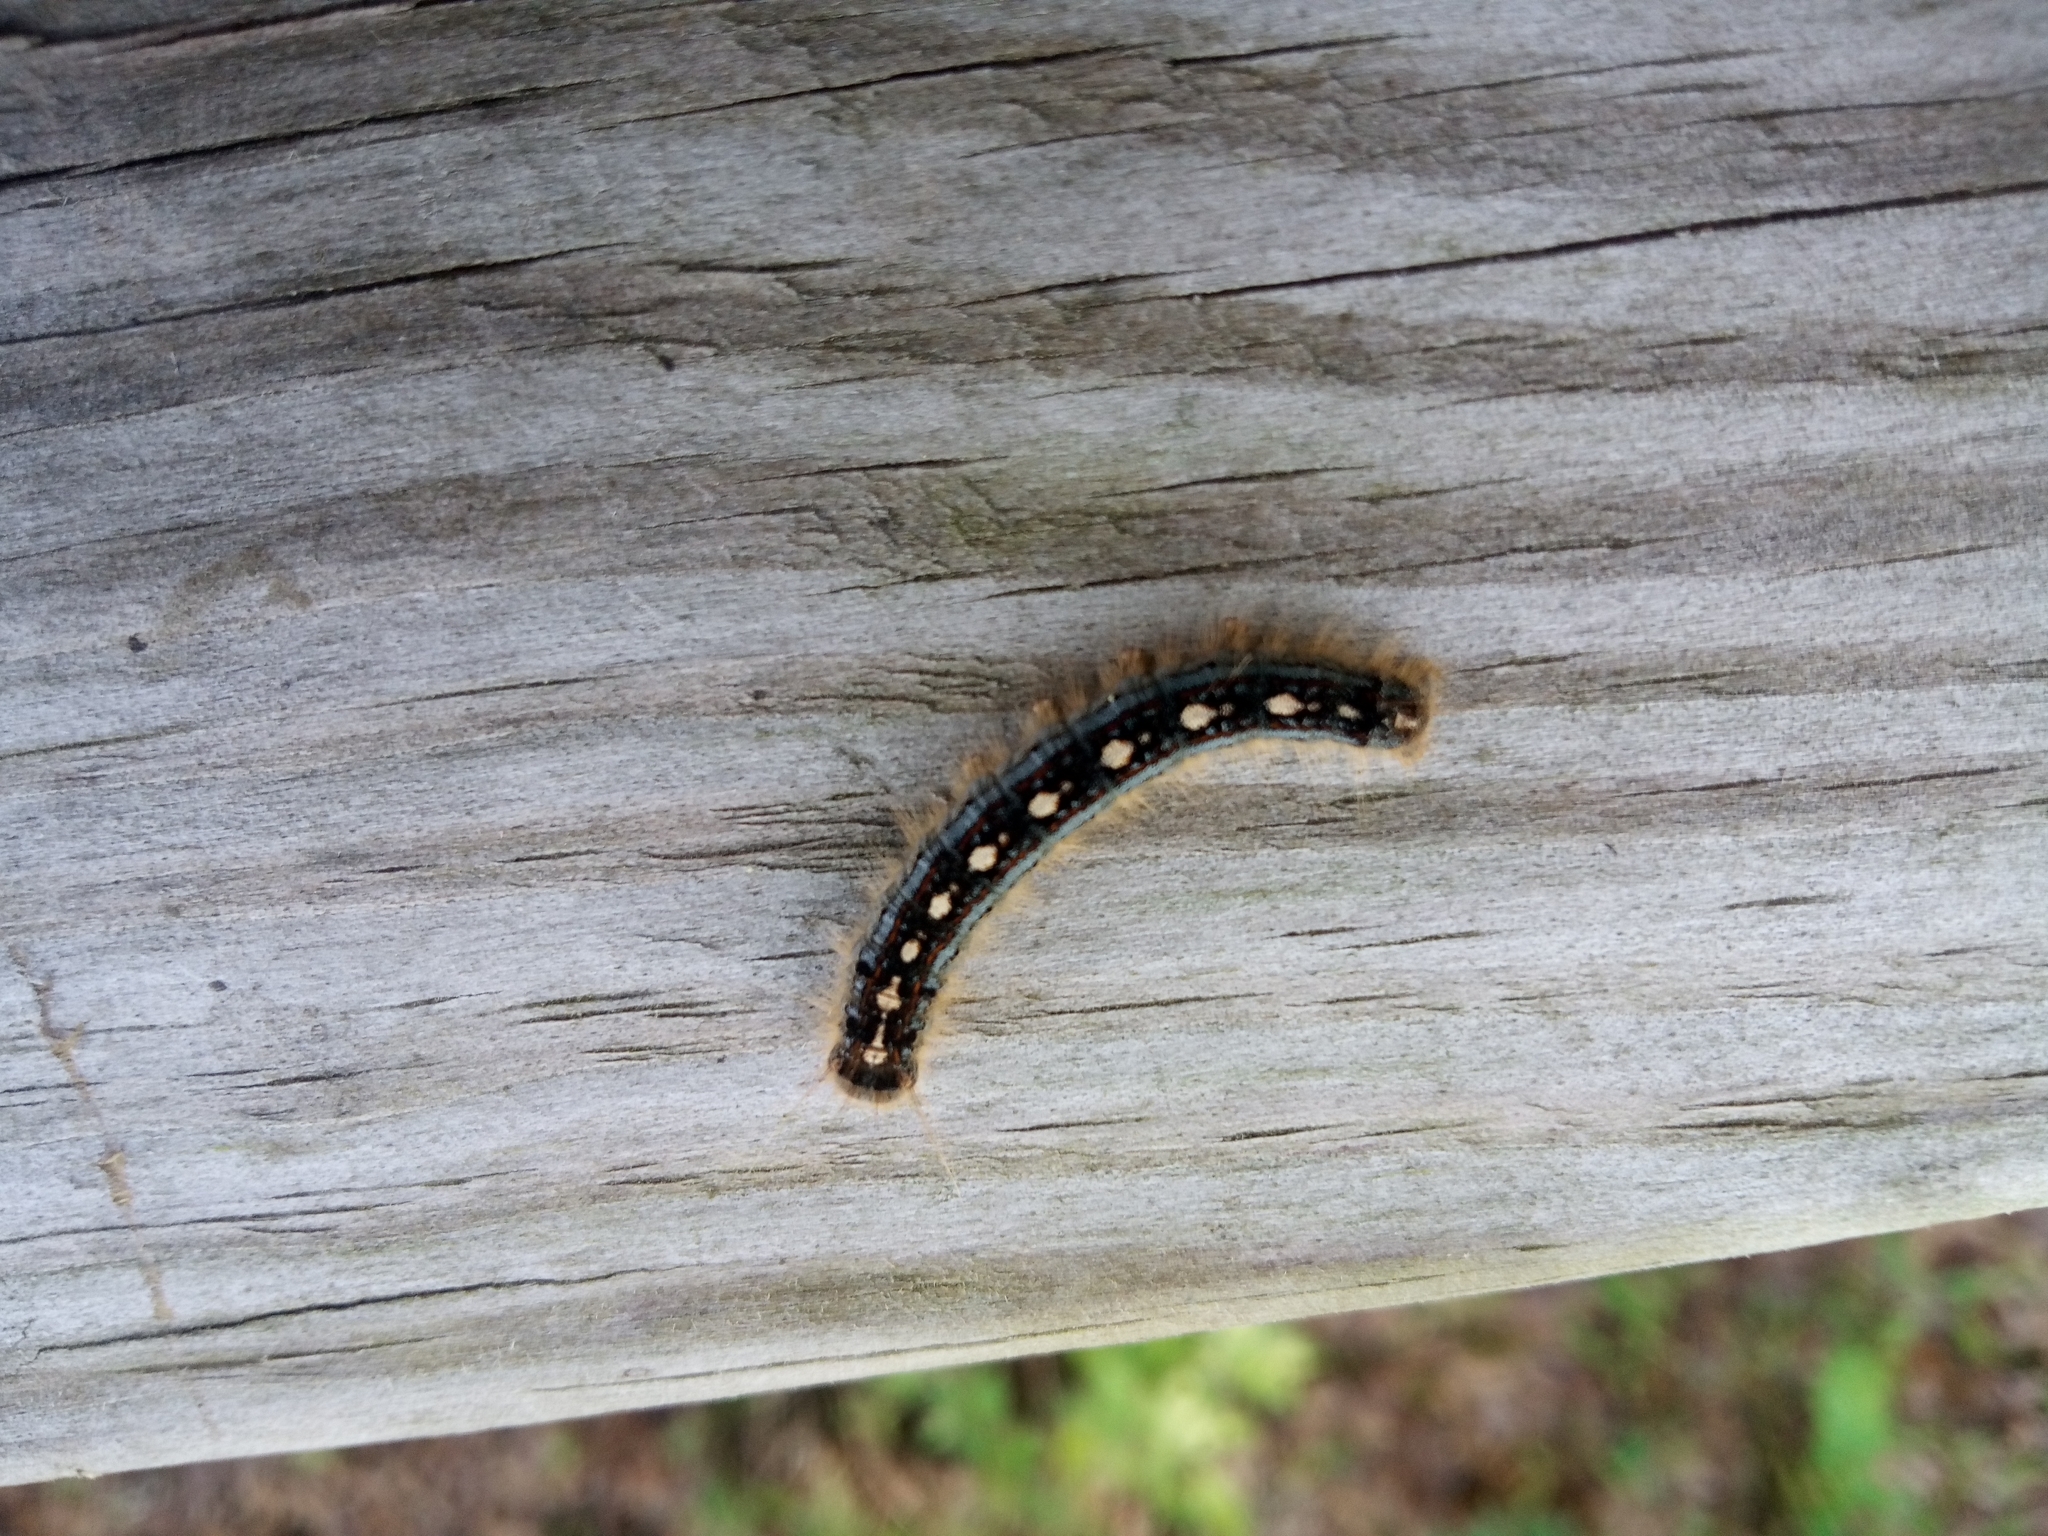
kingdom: Animalia
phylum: Arthropoda
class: Insecta
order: Lepidoptera
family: Lasiocampidae
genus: Malacosoma
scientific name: Malacosoma disstria
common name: Forest tent caterpillar
